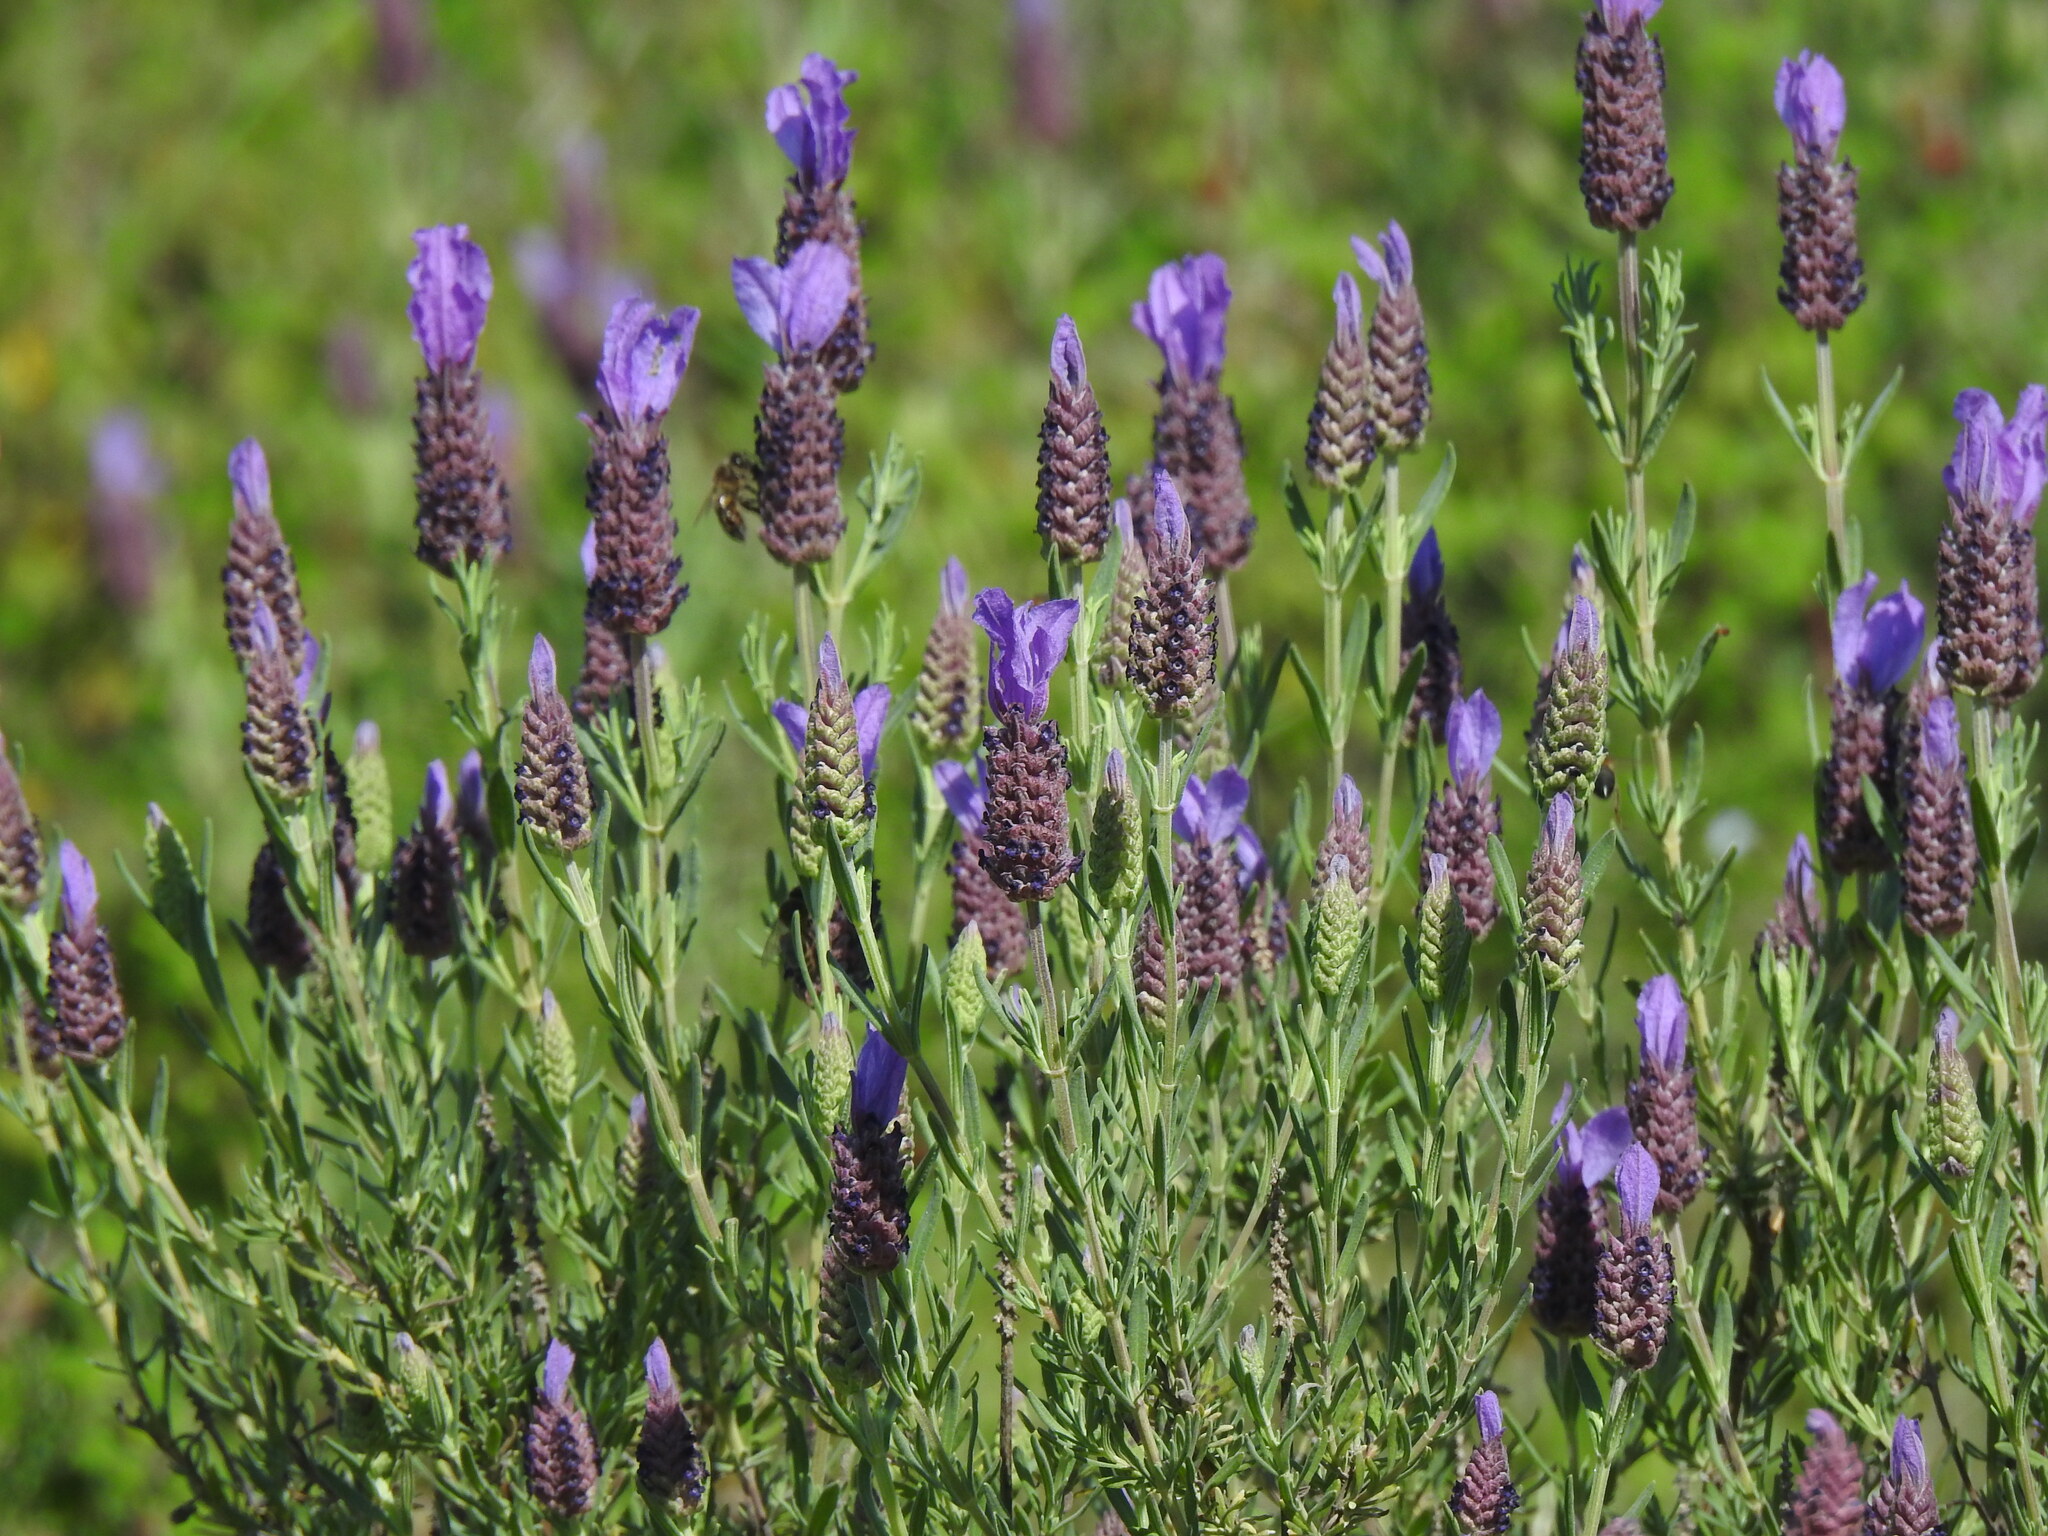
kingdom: Plantae
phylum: Tracheophyta
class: Magnoliopsida
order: Lamiales
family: Lamiaceae
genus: Lavandula
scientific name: Lavandula stoechas
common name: French lavender
